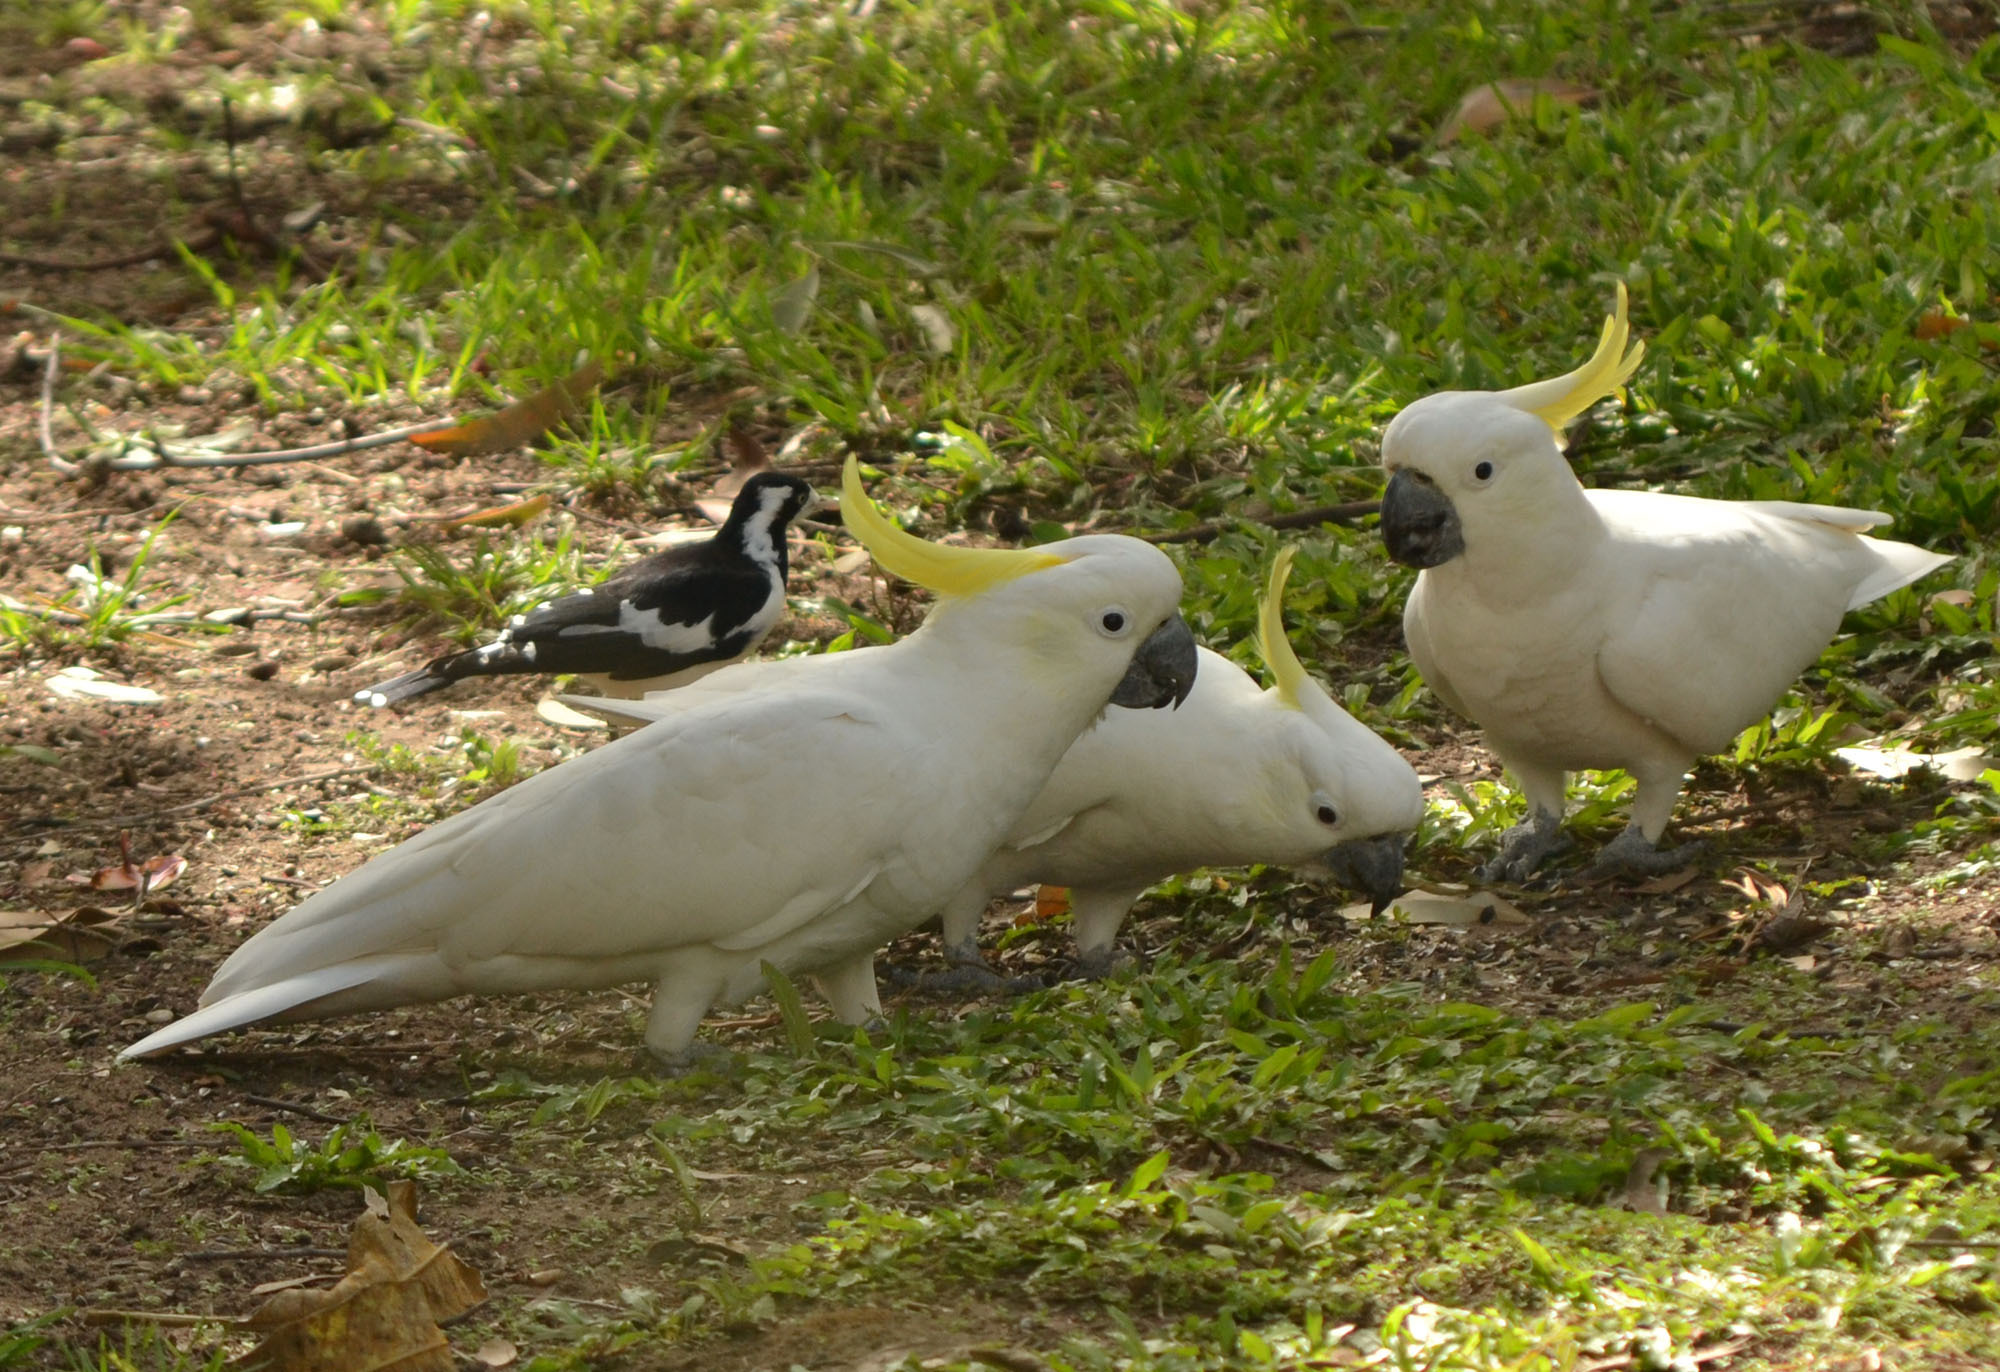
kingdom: Animalia
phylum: Chordata
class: Aves
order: Psittaciformes
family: Psittacidae
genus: Cacatua
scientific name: Cacatua galerita
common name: Sulphur-crested cockatoo
